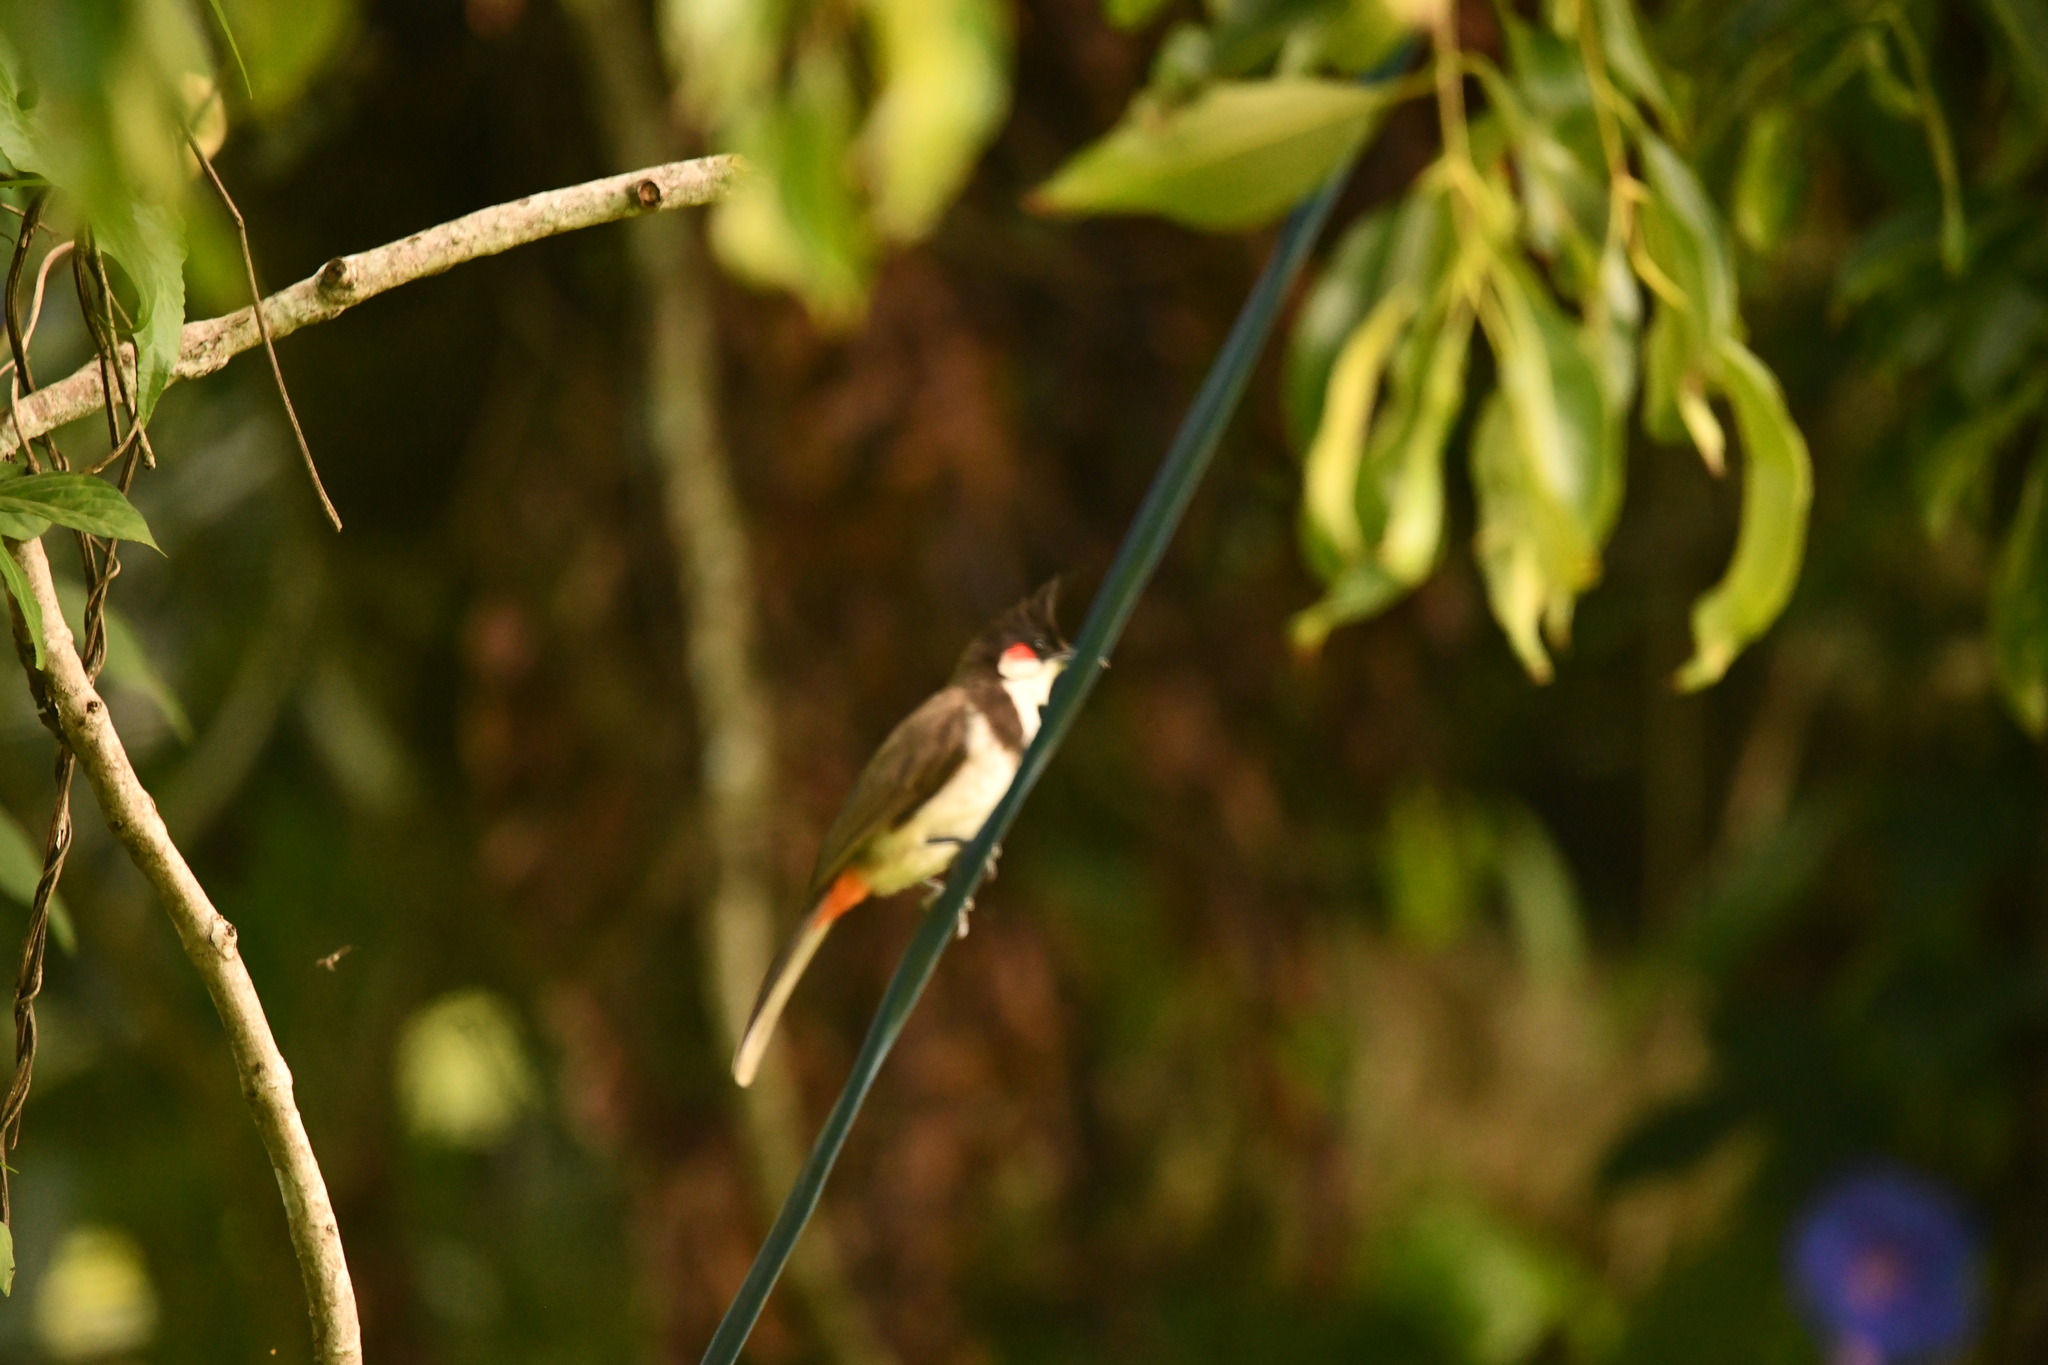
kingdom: Animalia
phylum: Chordata
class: Aves
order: Passeriformes
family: Pycnonotidae
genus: Pycnonotus
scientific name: Pycnonotus jocosus
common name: Red-whiskered bulbul
